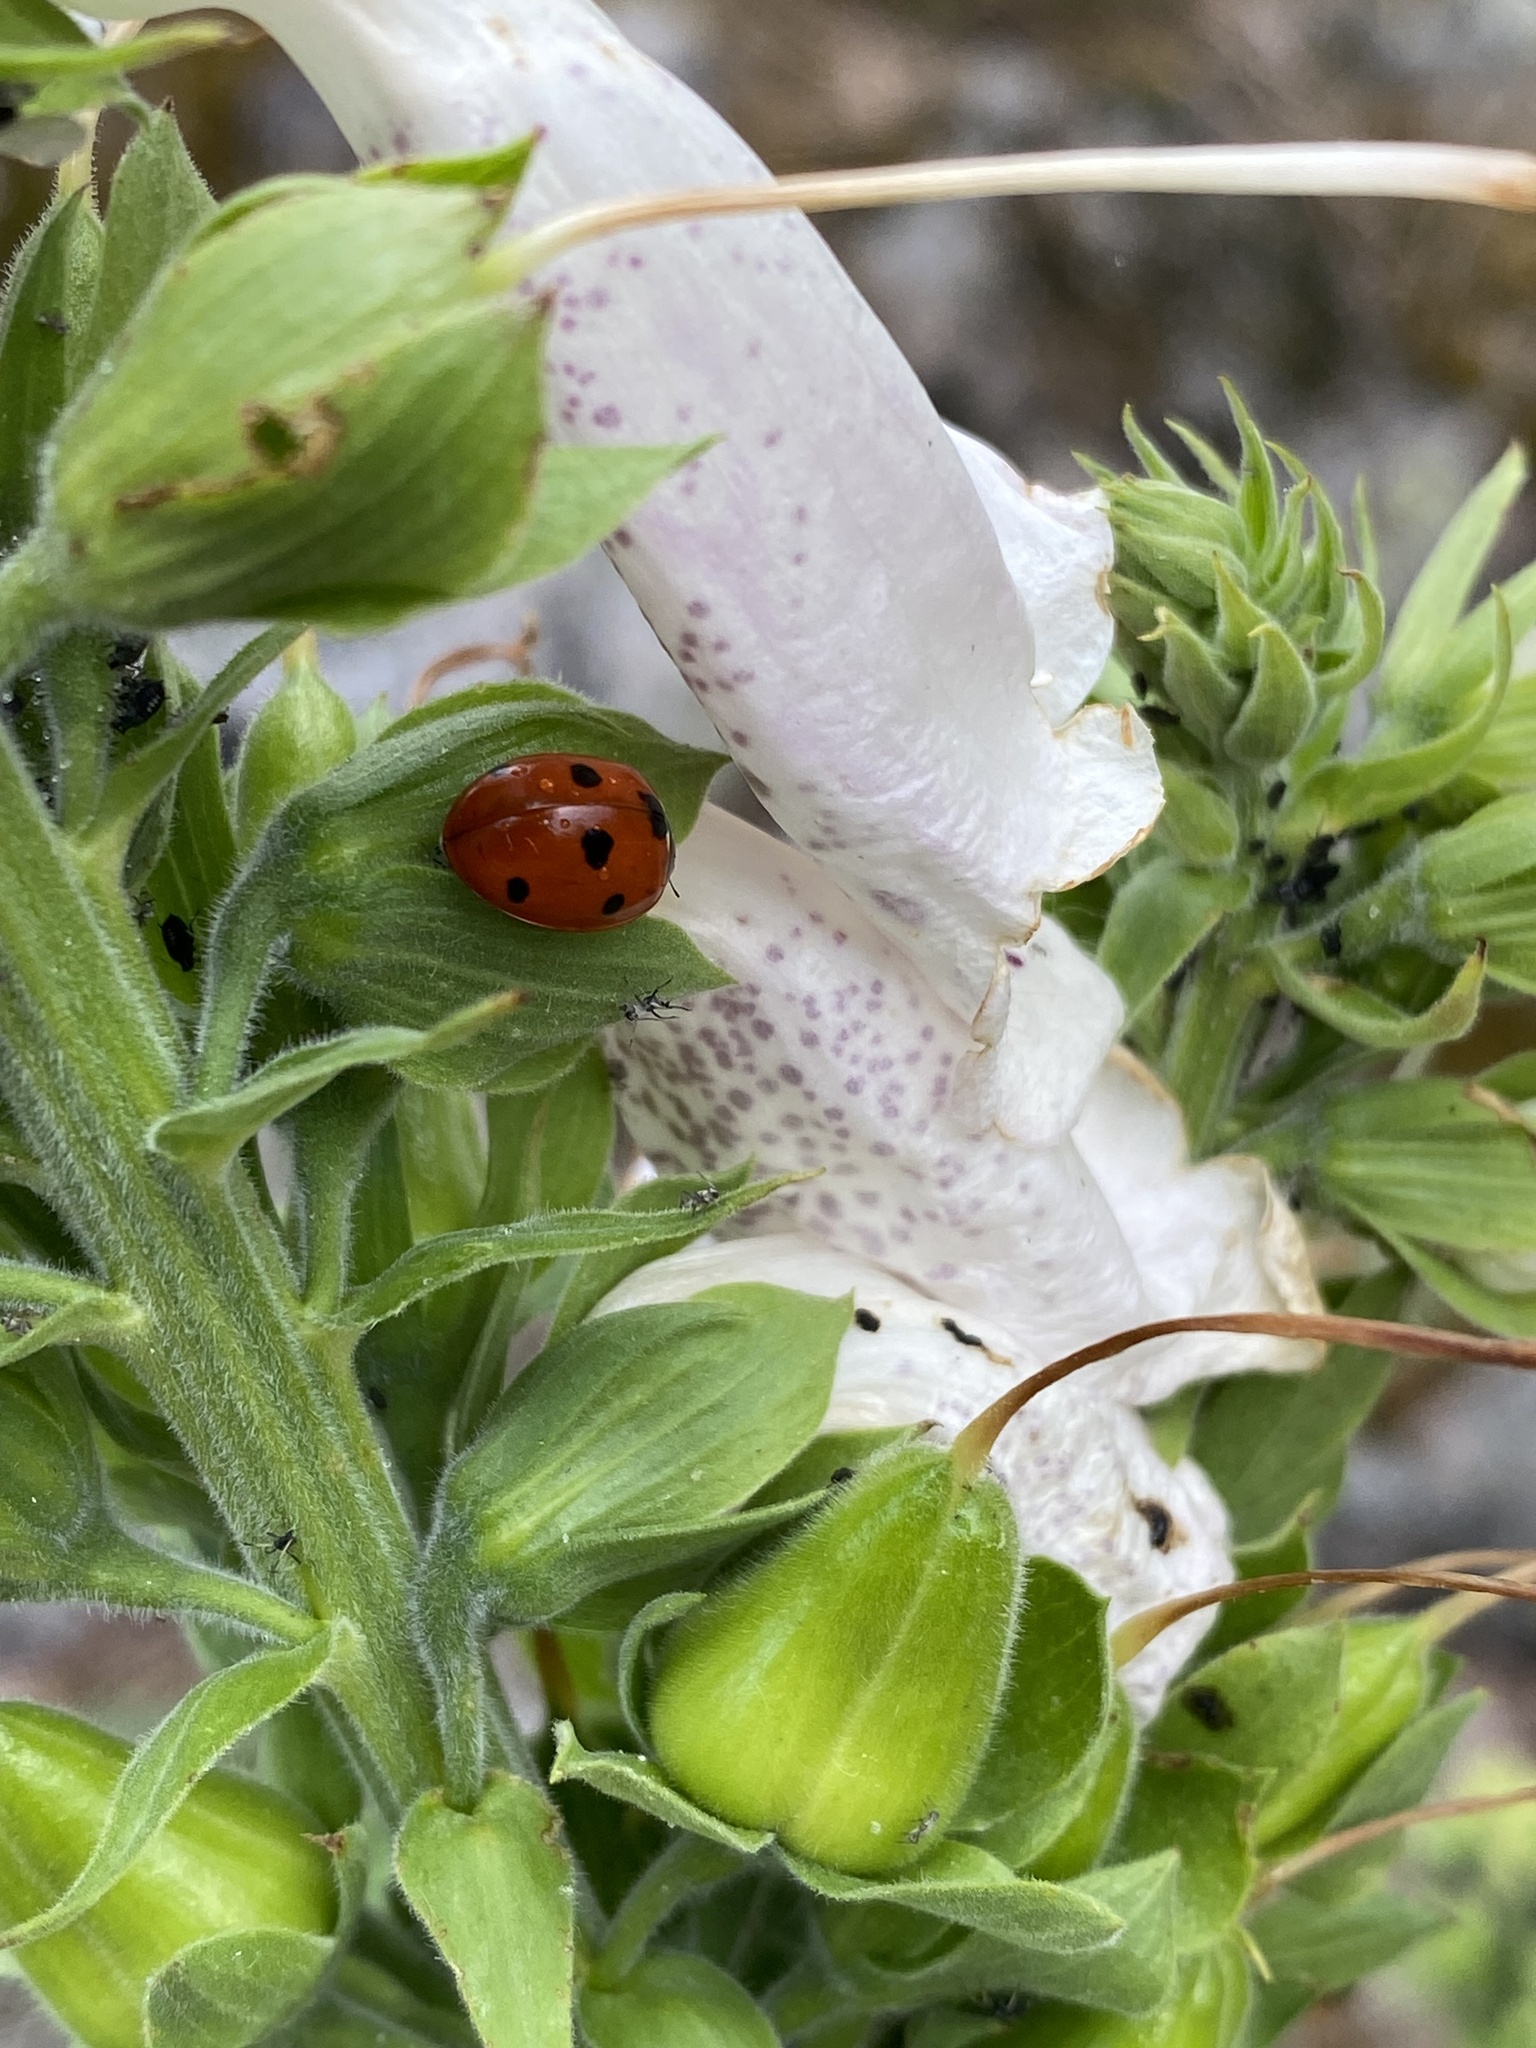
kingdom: Animalia
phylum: Arthropoda
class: Insecta
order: Coleoptera
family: Coccinellidae
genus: Coccinella
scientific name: Coccinella septempunctata
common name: Sevenspotted lady beetle
